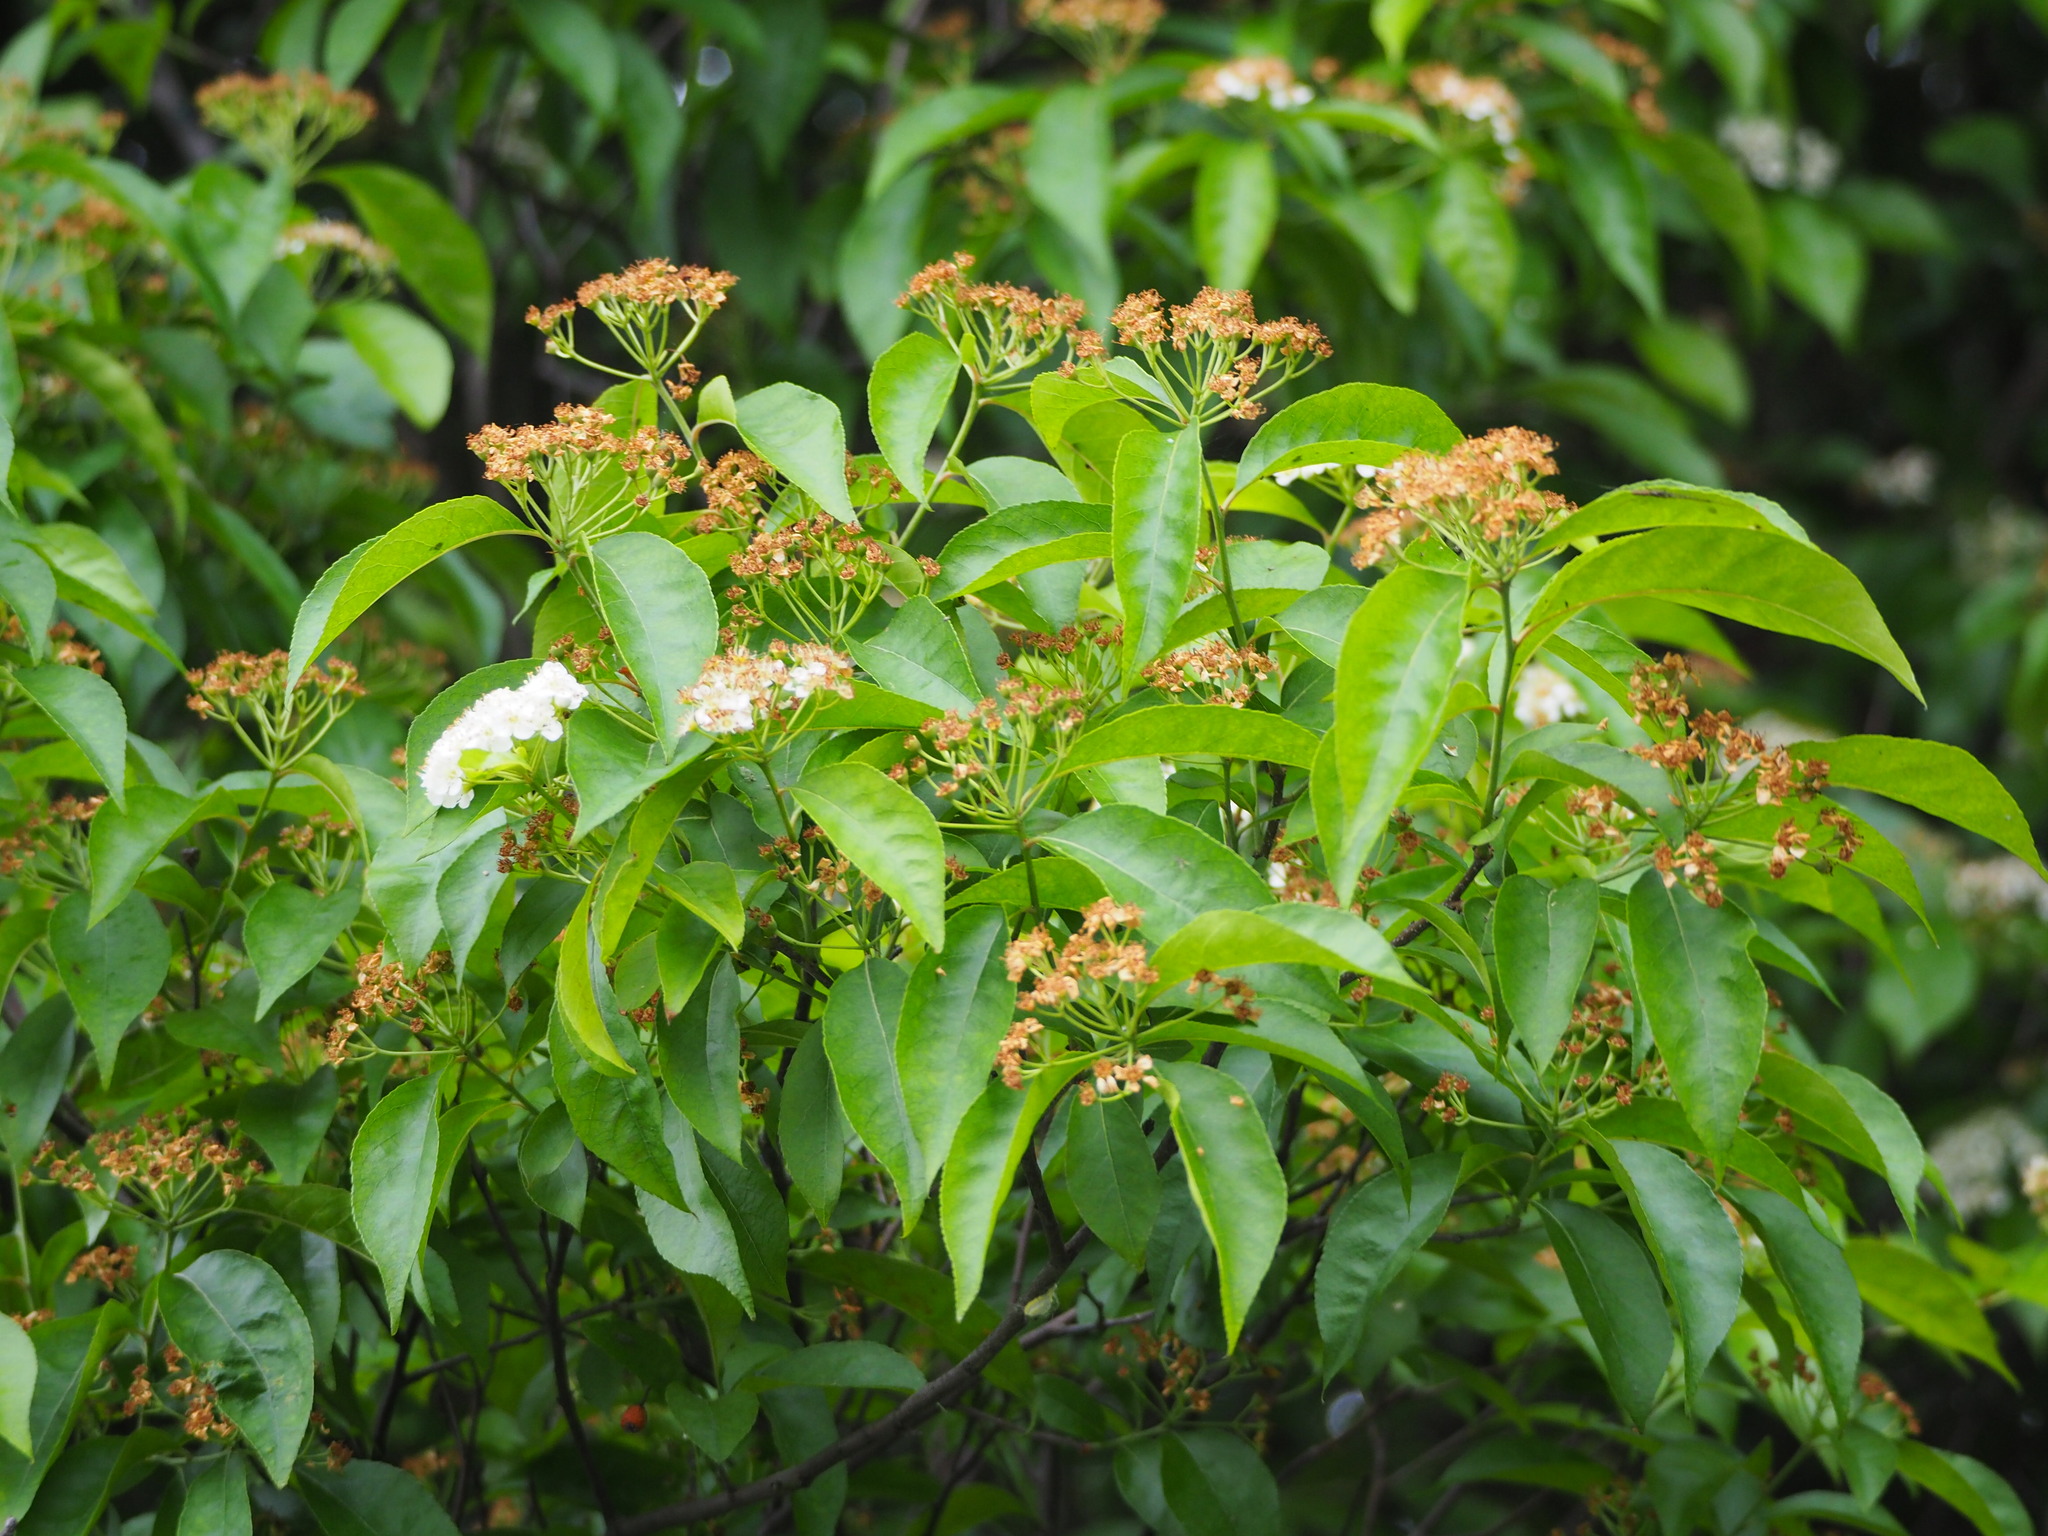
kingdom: Plantae
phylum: Tracheophyta
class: Magnoliopsida
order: Rosales
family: Rosaceae
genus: Pourthiaea
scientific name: Pourthiaea arguta
